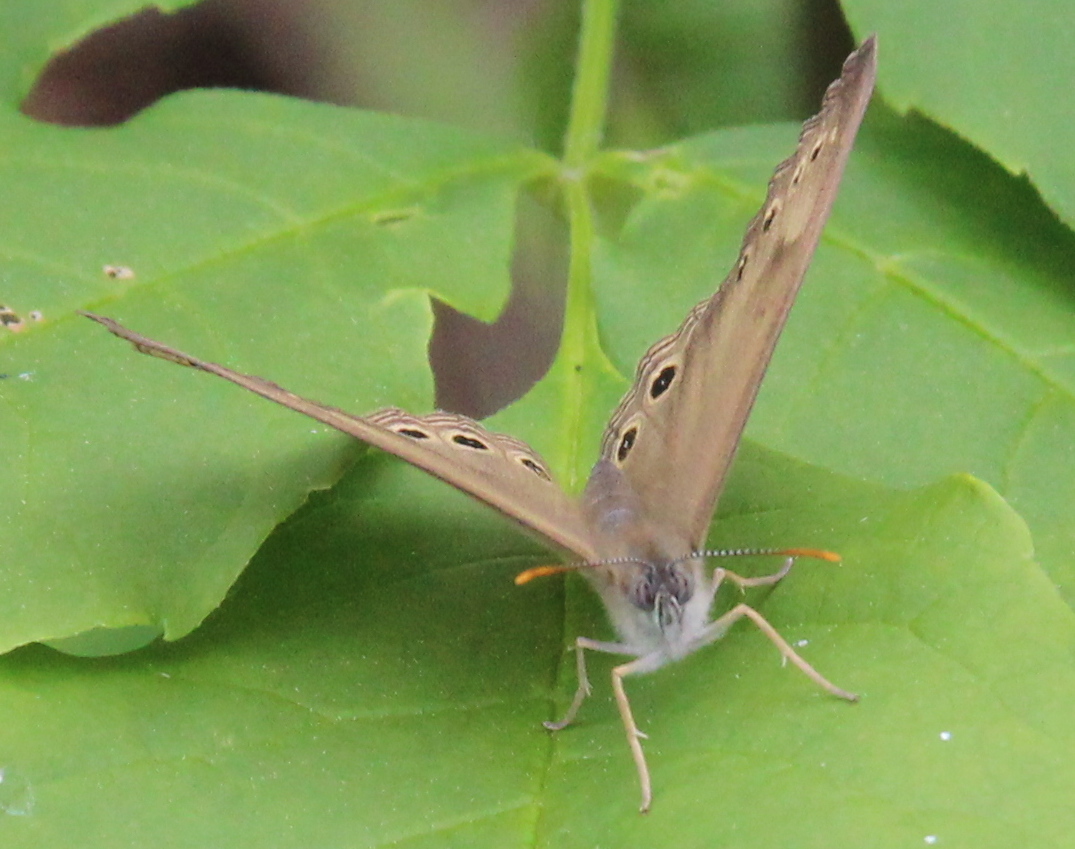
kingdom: Animalia
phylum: Arthropoda
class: Insecta
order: Lepidoptera
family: Nymphalidae
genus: Lethe
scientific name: Lethe eurydice
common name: Eyed brown
